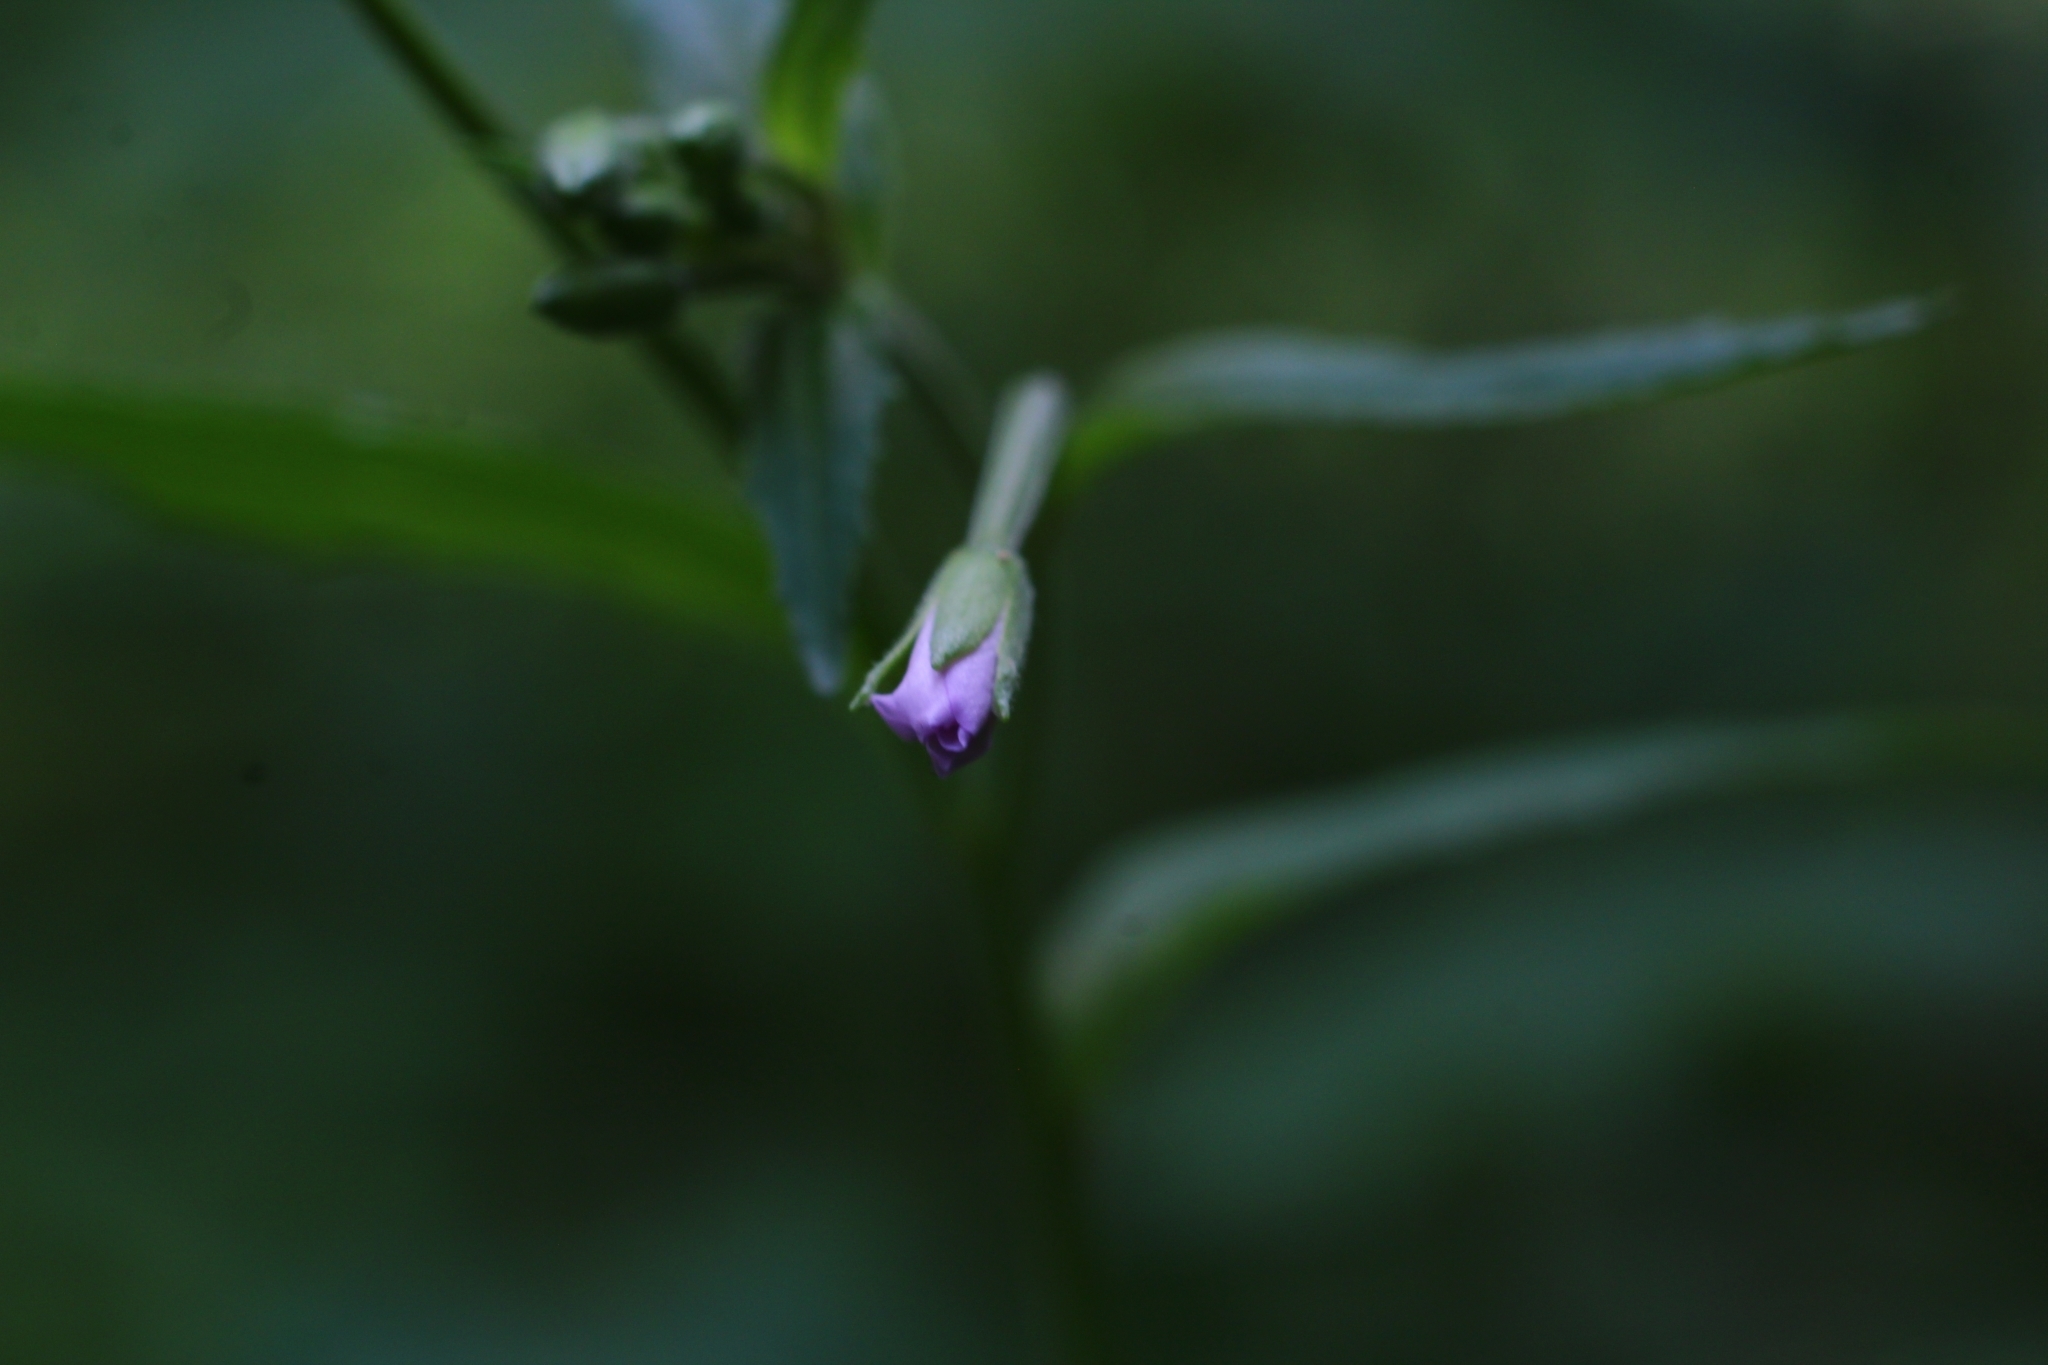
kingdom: Plantae
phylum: Tracheophyta
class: Magnoliopsida
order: Myrtales
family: Onagraceae
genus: Epilobium
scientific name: Epilobium montanum
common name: Broad-leaved willowherb
